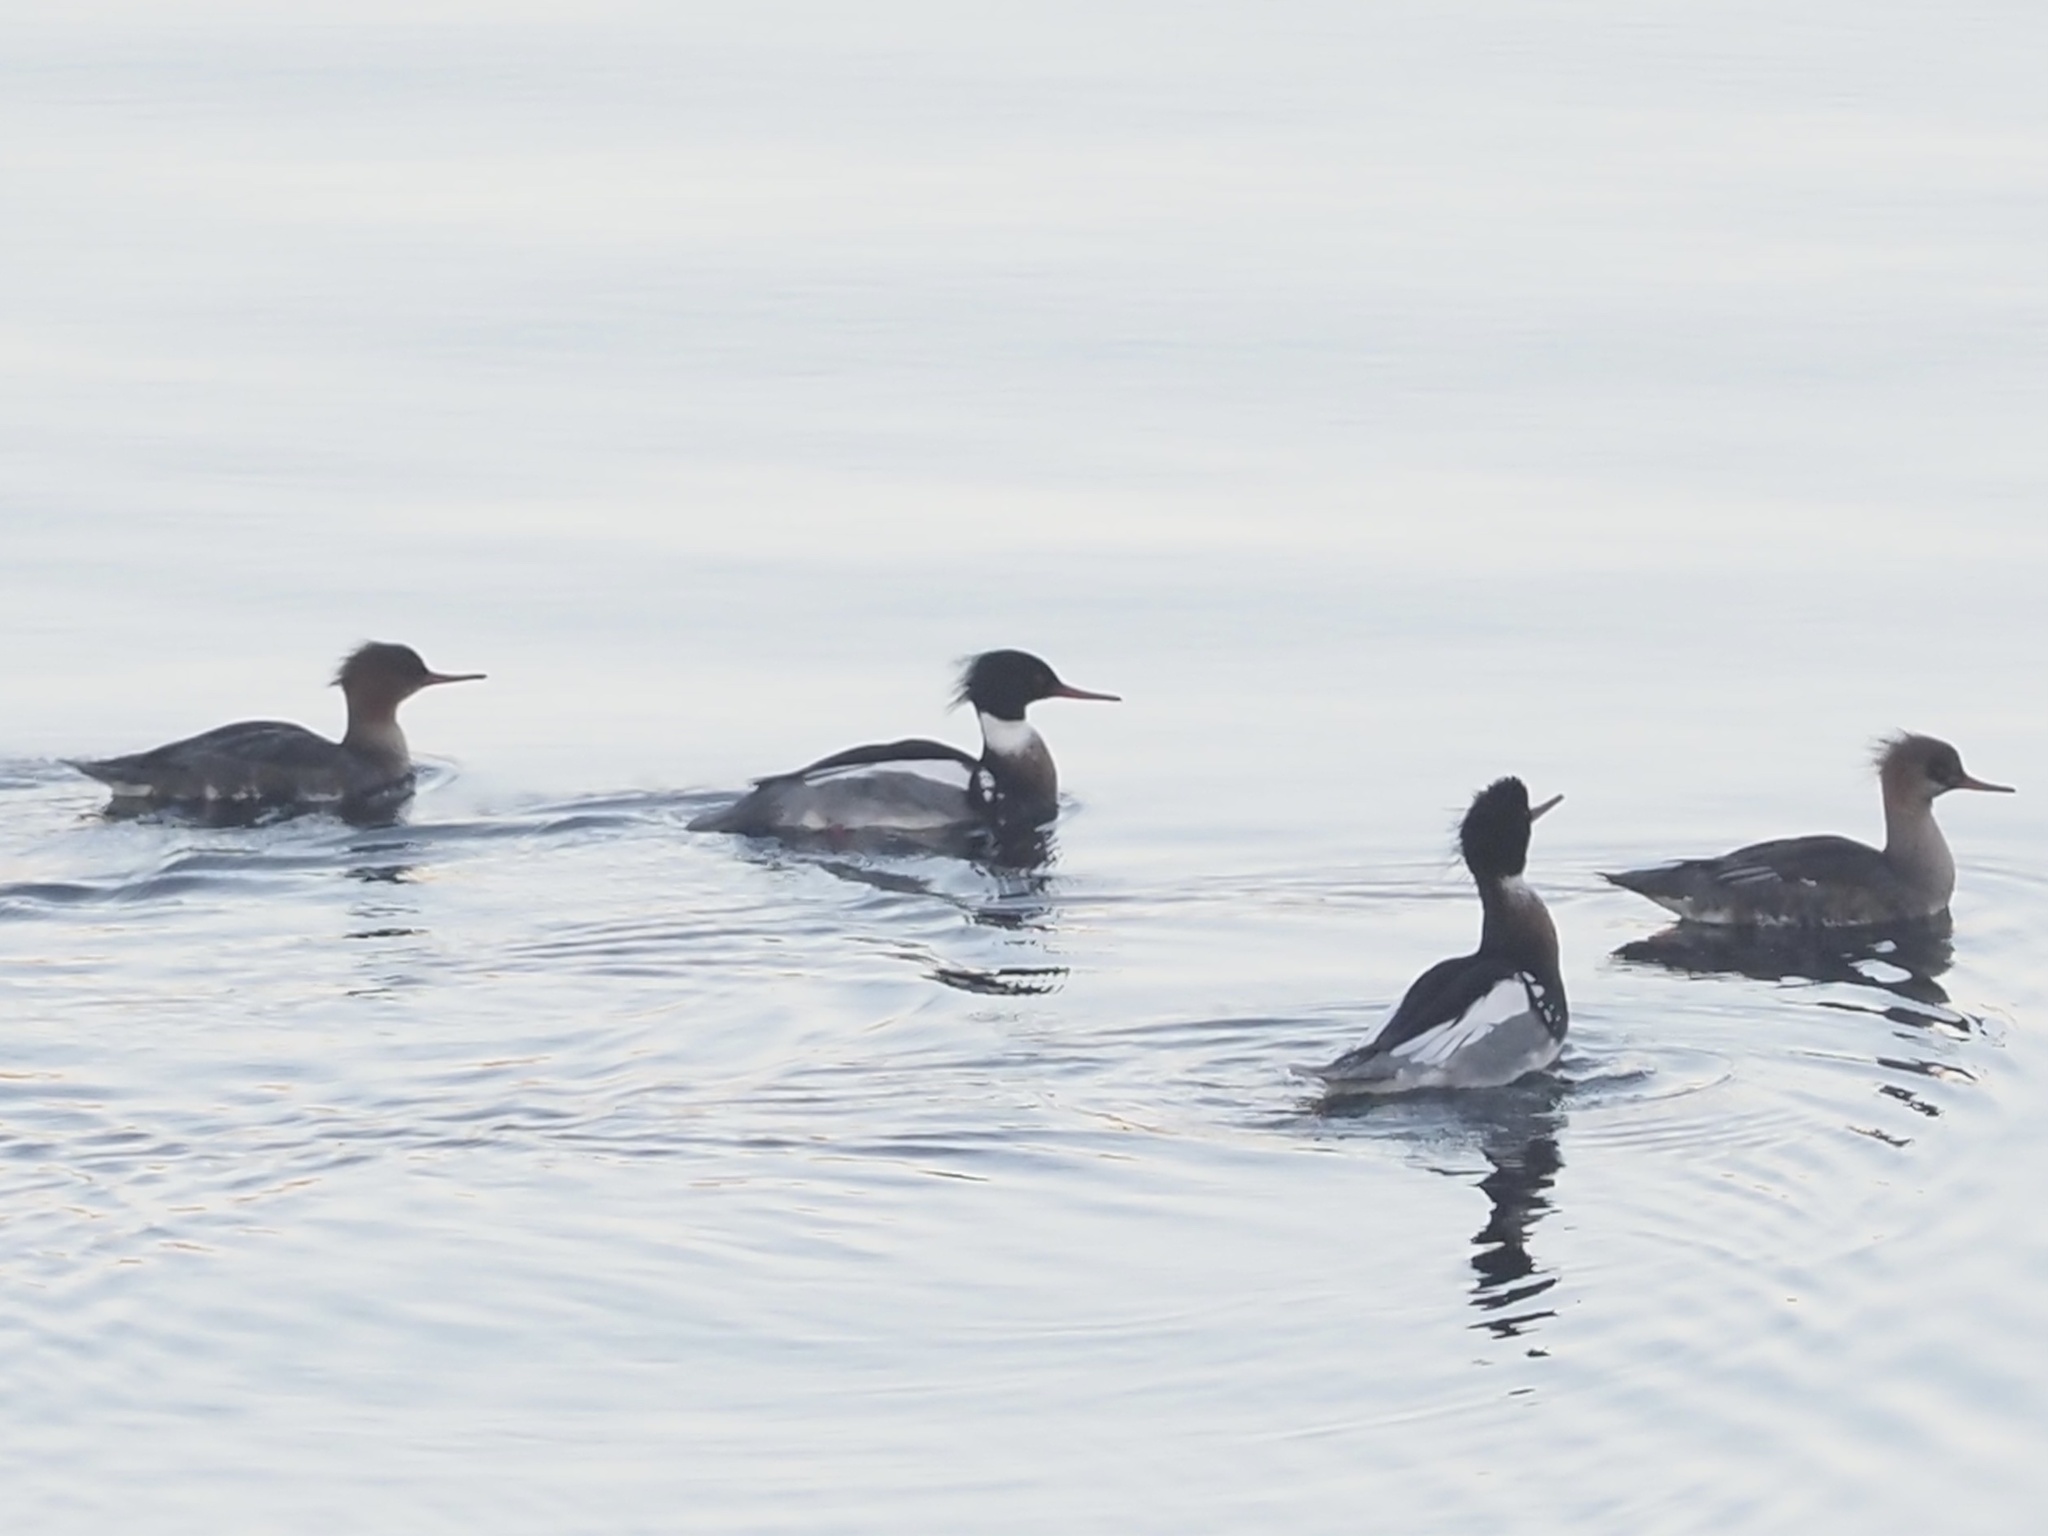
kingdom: Animalia
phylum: Chordata
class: Aves
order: Anseriformes
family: Anatidae
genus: Mergus
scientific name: Mergus serrator
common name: Red-breasted merganser
